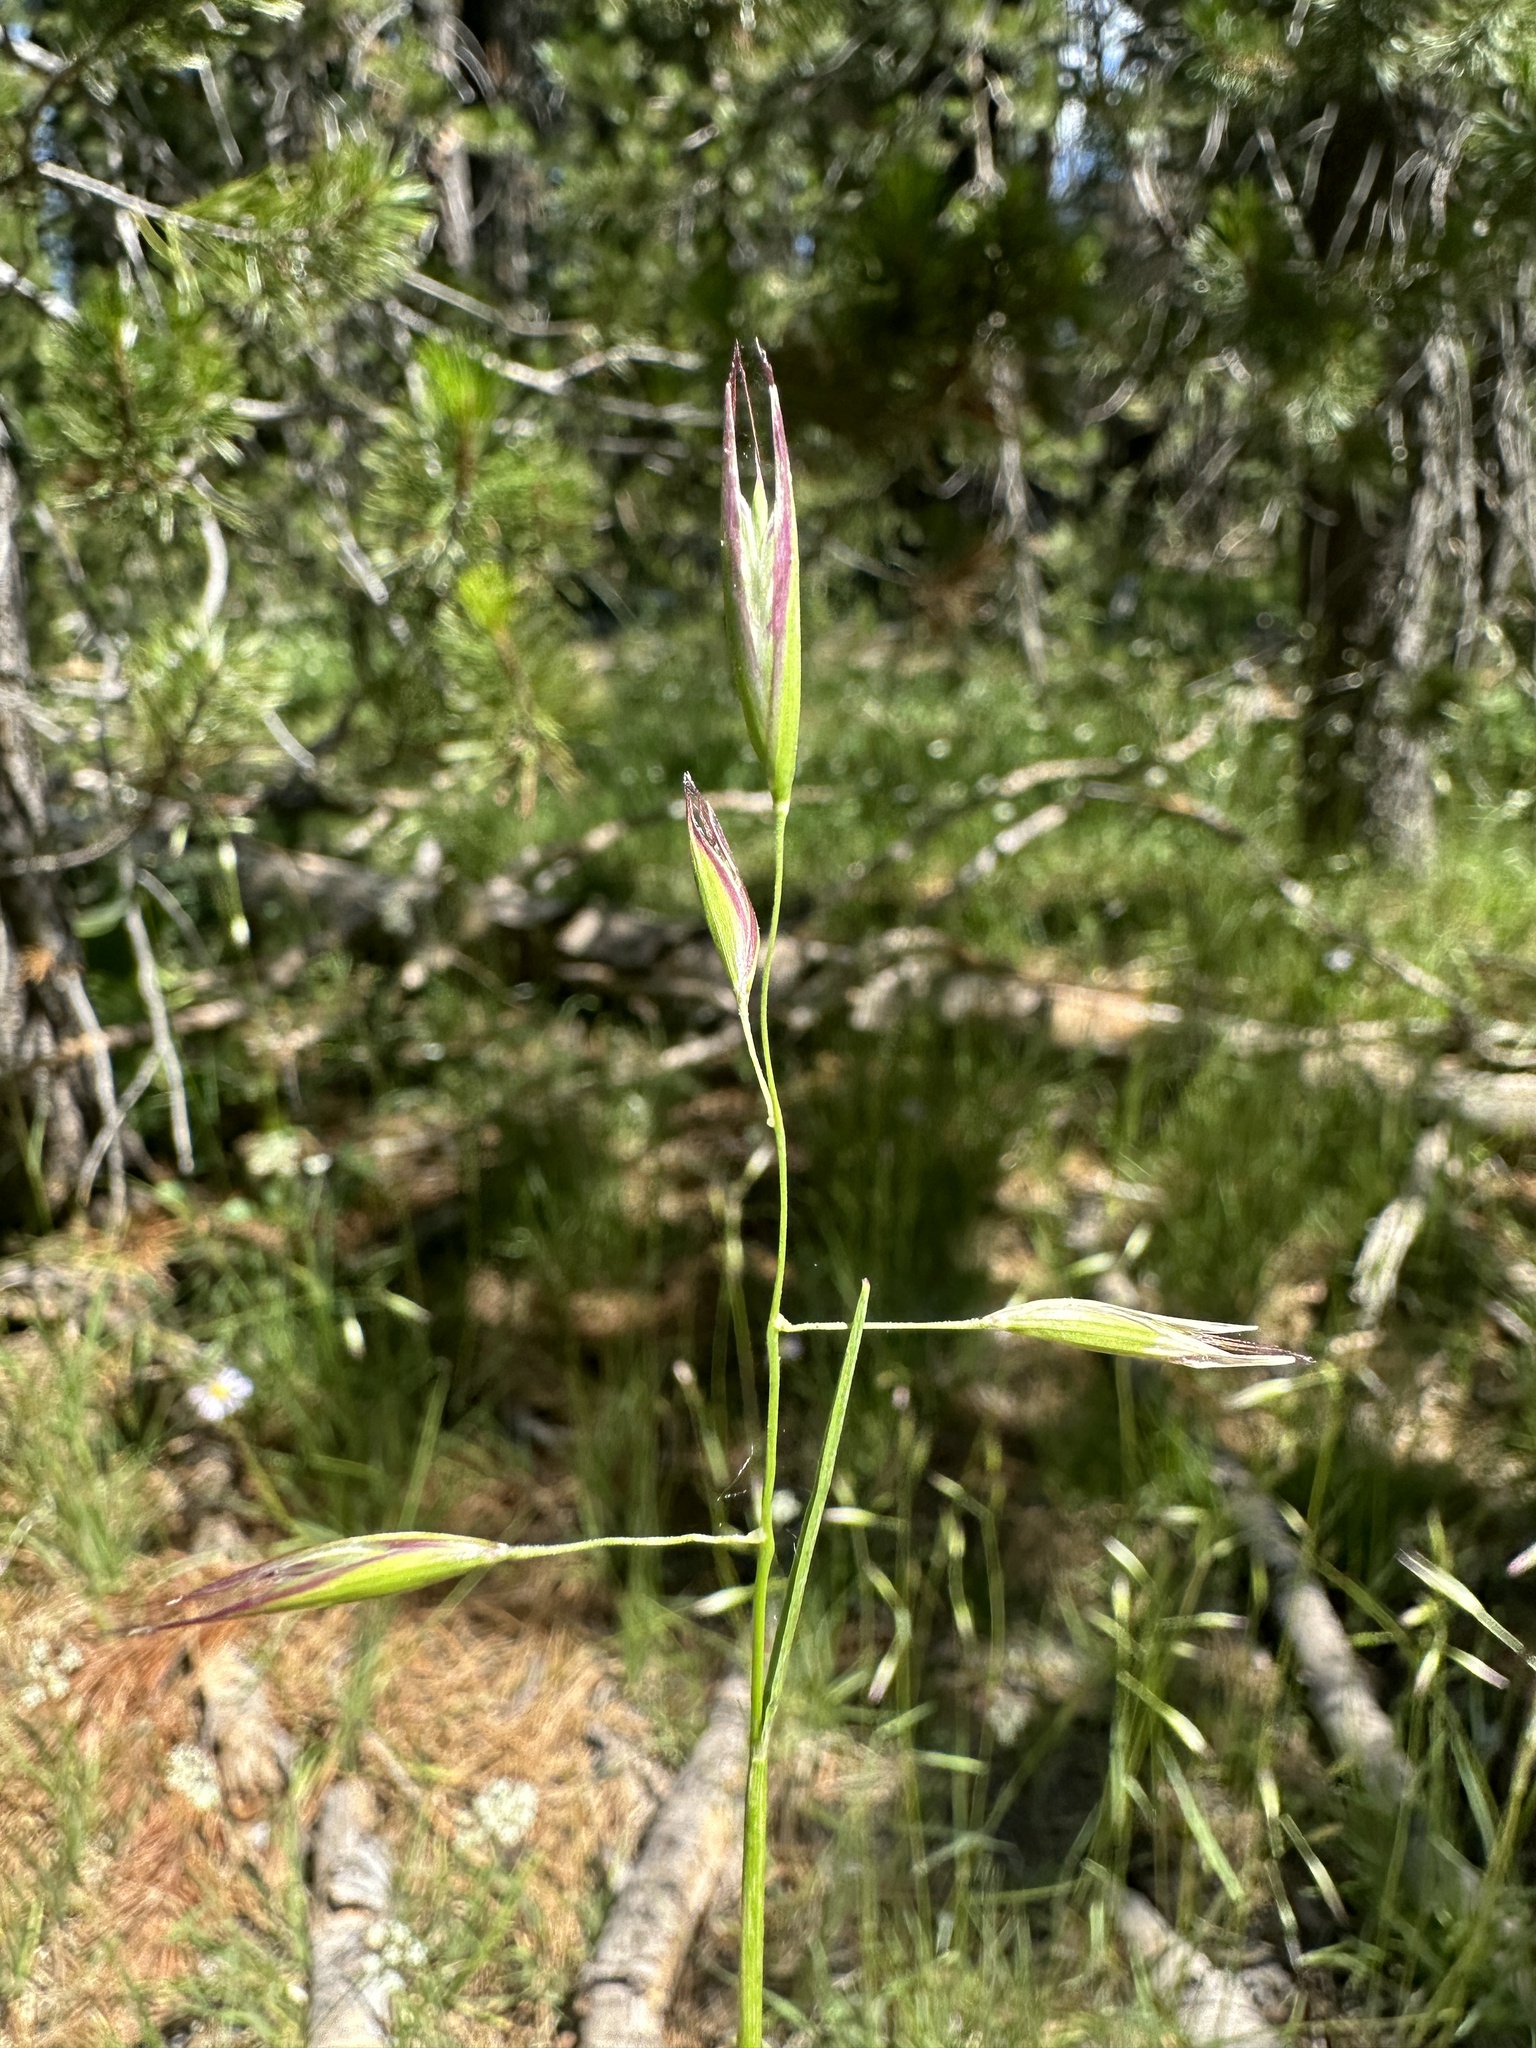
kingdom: Plantae
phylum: Tracheophyta
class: Liliopsida
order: Poales
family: Poaceae
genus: Danthonia
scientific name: Danthonia californica
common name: California oat grass
